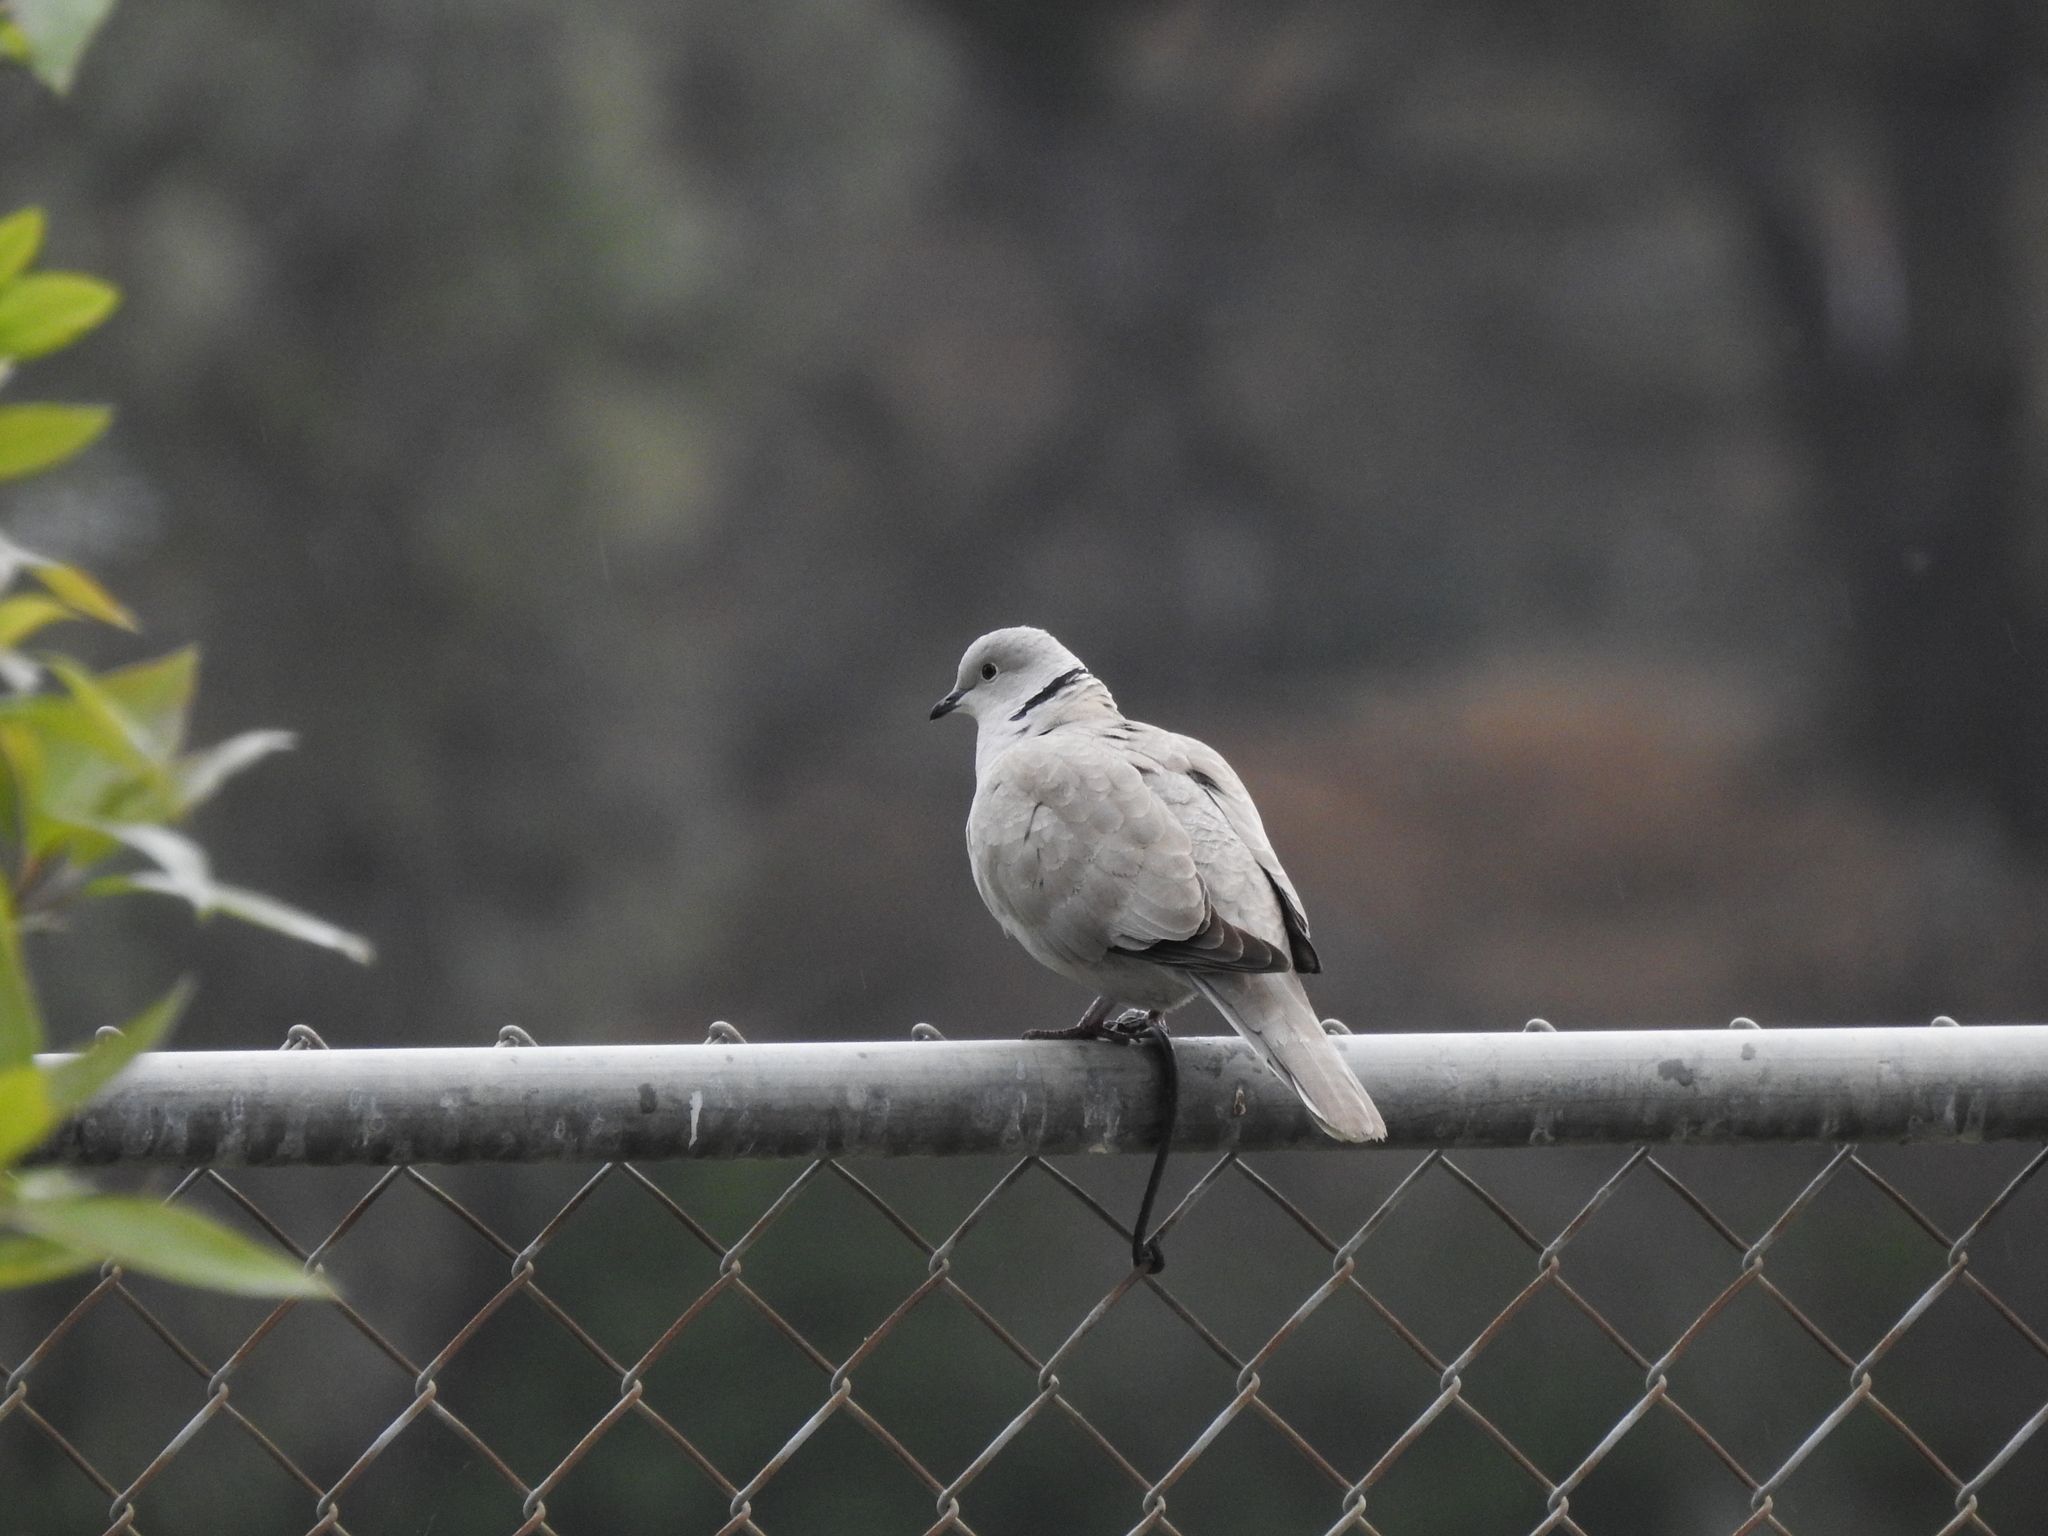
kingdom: Animalia
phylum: Chordata
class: Aves
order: Columbiformes
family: Columbidae
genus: Streptopelia
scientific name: Streptopelia decaocto
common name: Eurasian collared dove
